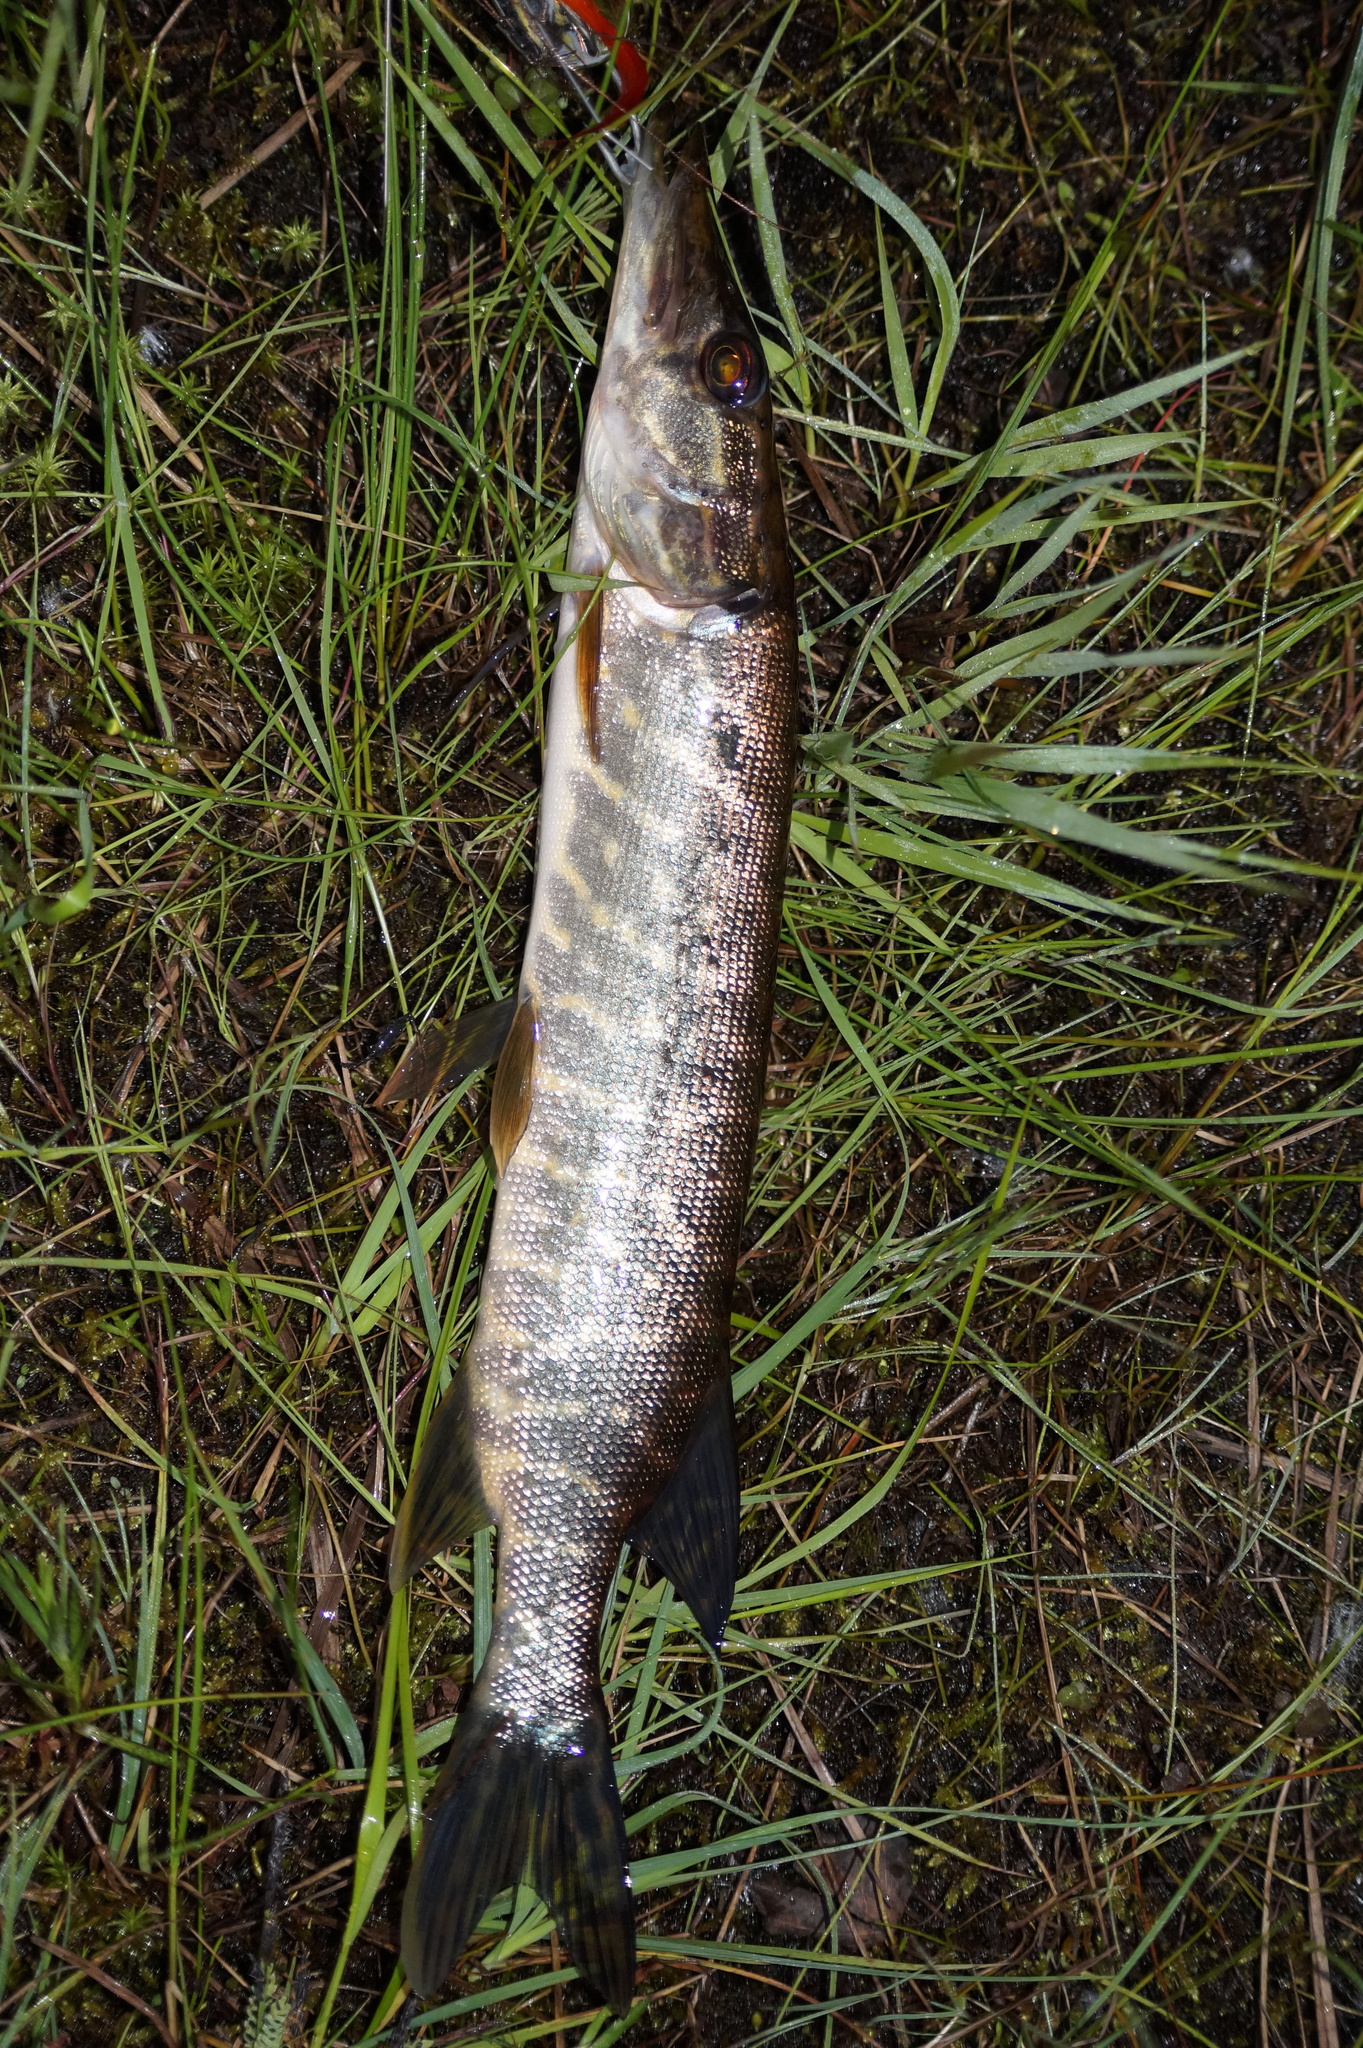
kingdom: Animalia
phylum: Chordata
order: Esociformes
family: Esocidae
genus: Esox
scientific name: Esox lucius
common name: Northern pike
